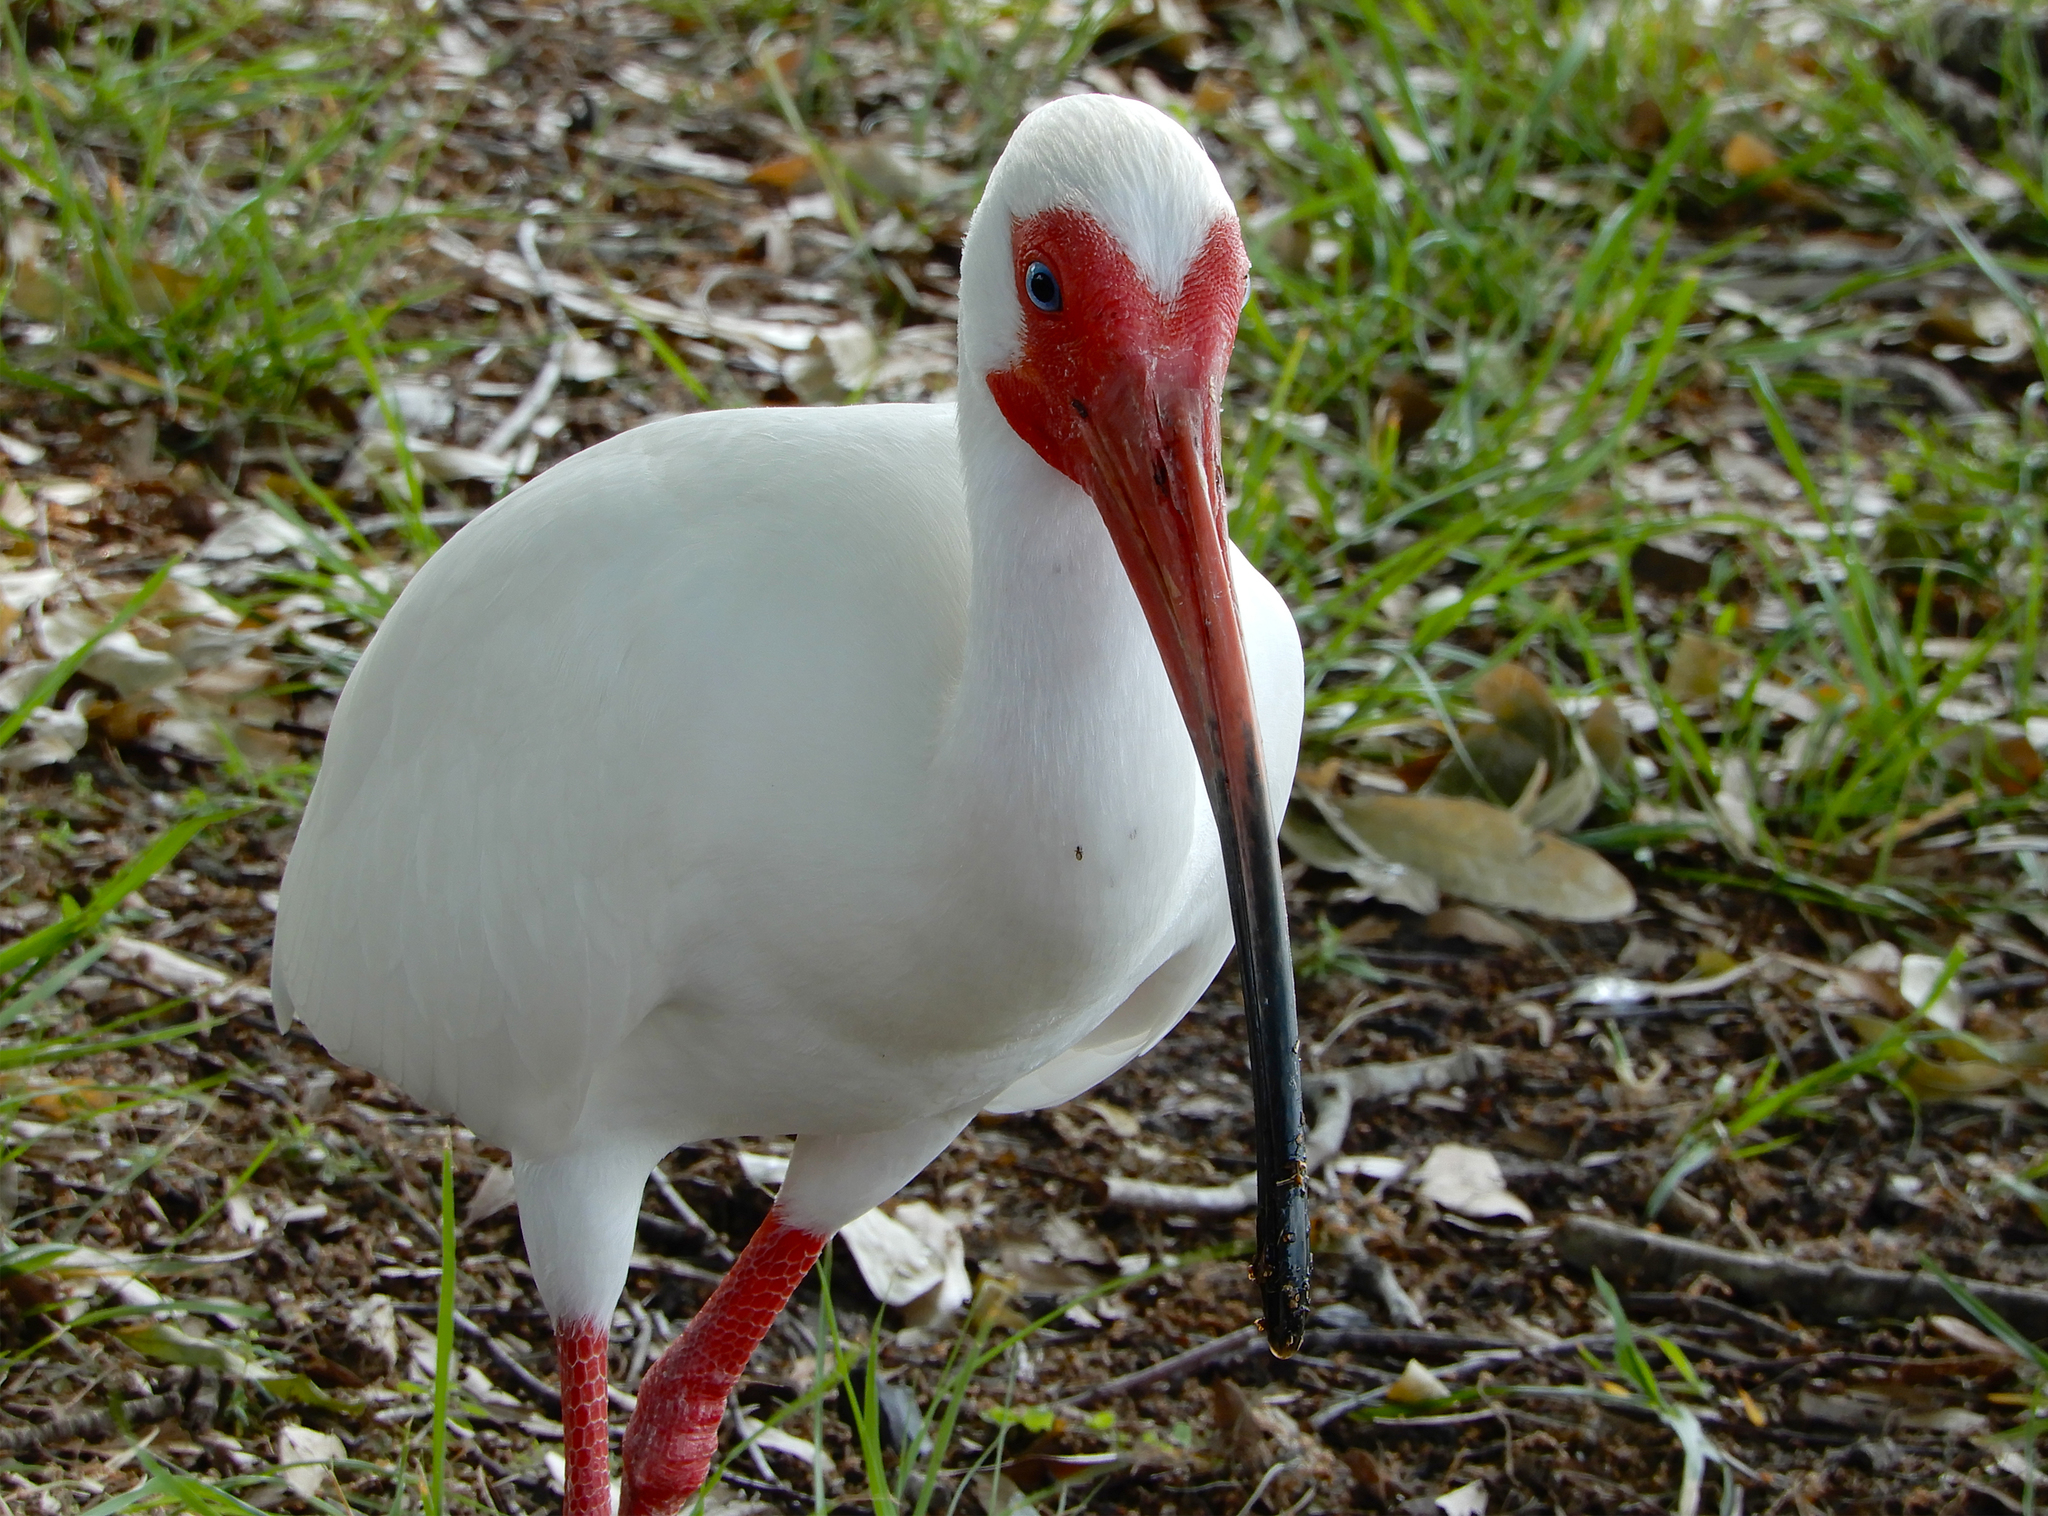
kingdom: Animalia
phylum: Chordata
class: Aves
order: Pelecaniformes
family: Threskiornithidae
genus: Eudocimus
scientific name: Eudocimus albus
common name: White ibis
